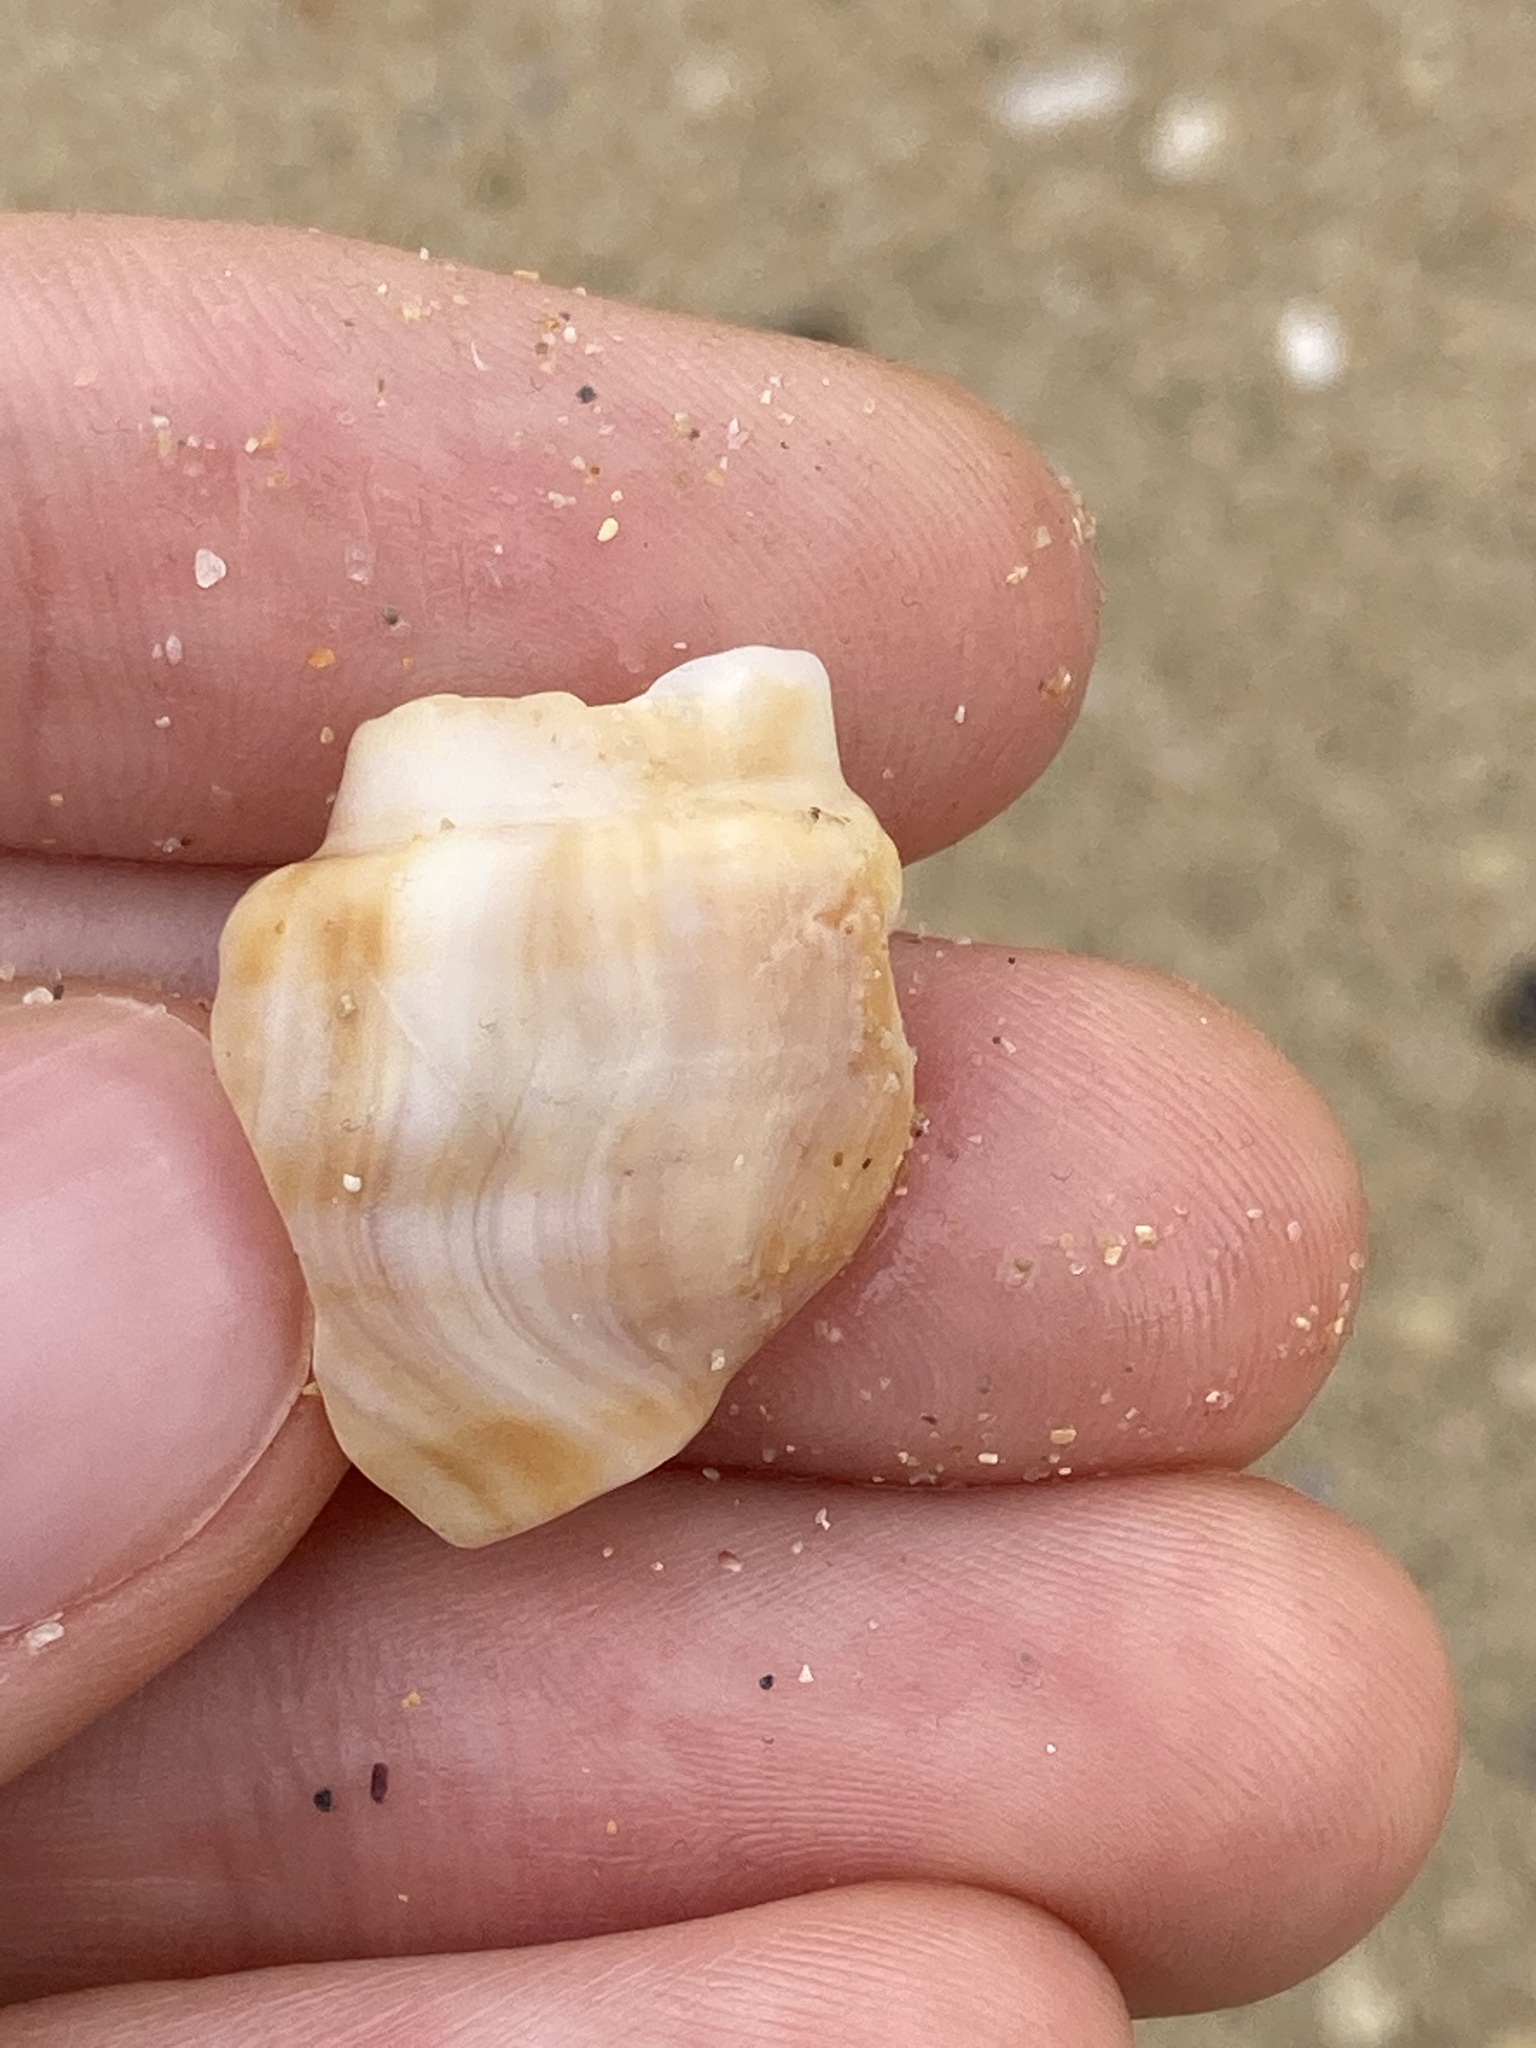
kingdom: Animalia
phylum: Mollusca
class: Gastropoda
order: Littorinimorpha
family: Struthiolariidae
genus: Tylospira
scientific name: Tylospira scutulata
